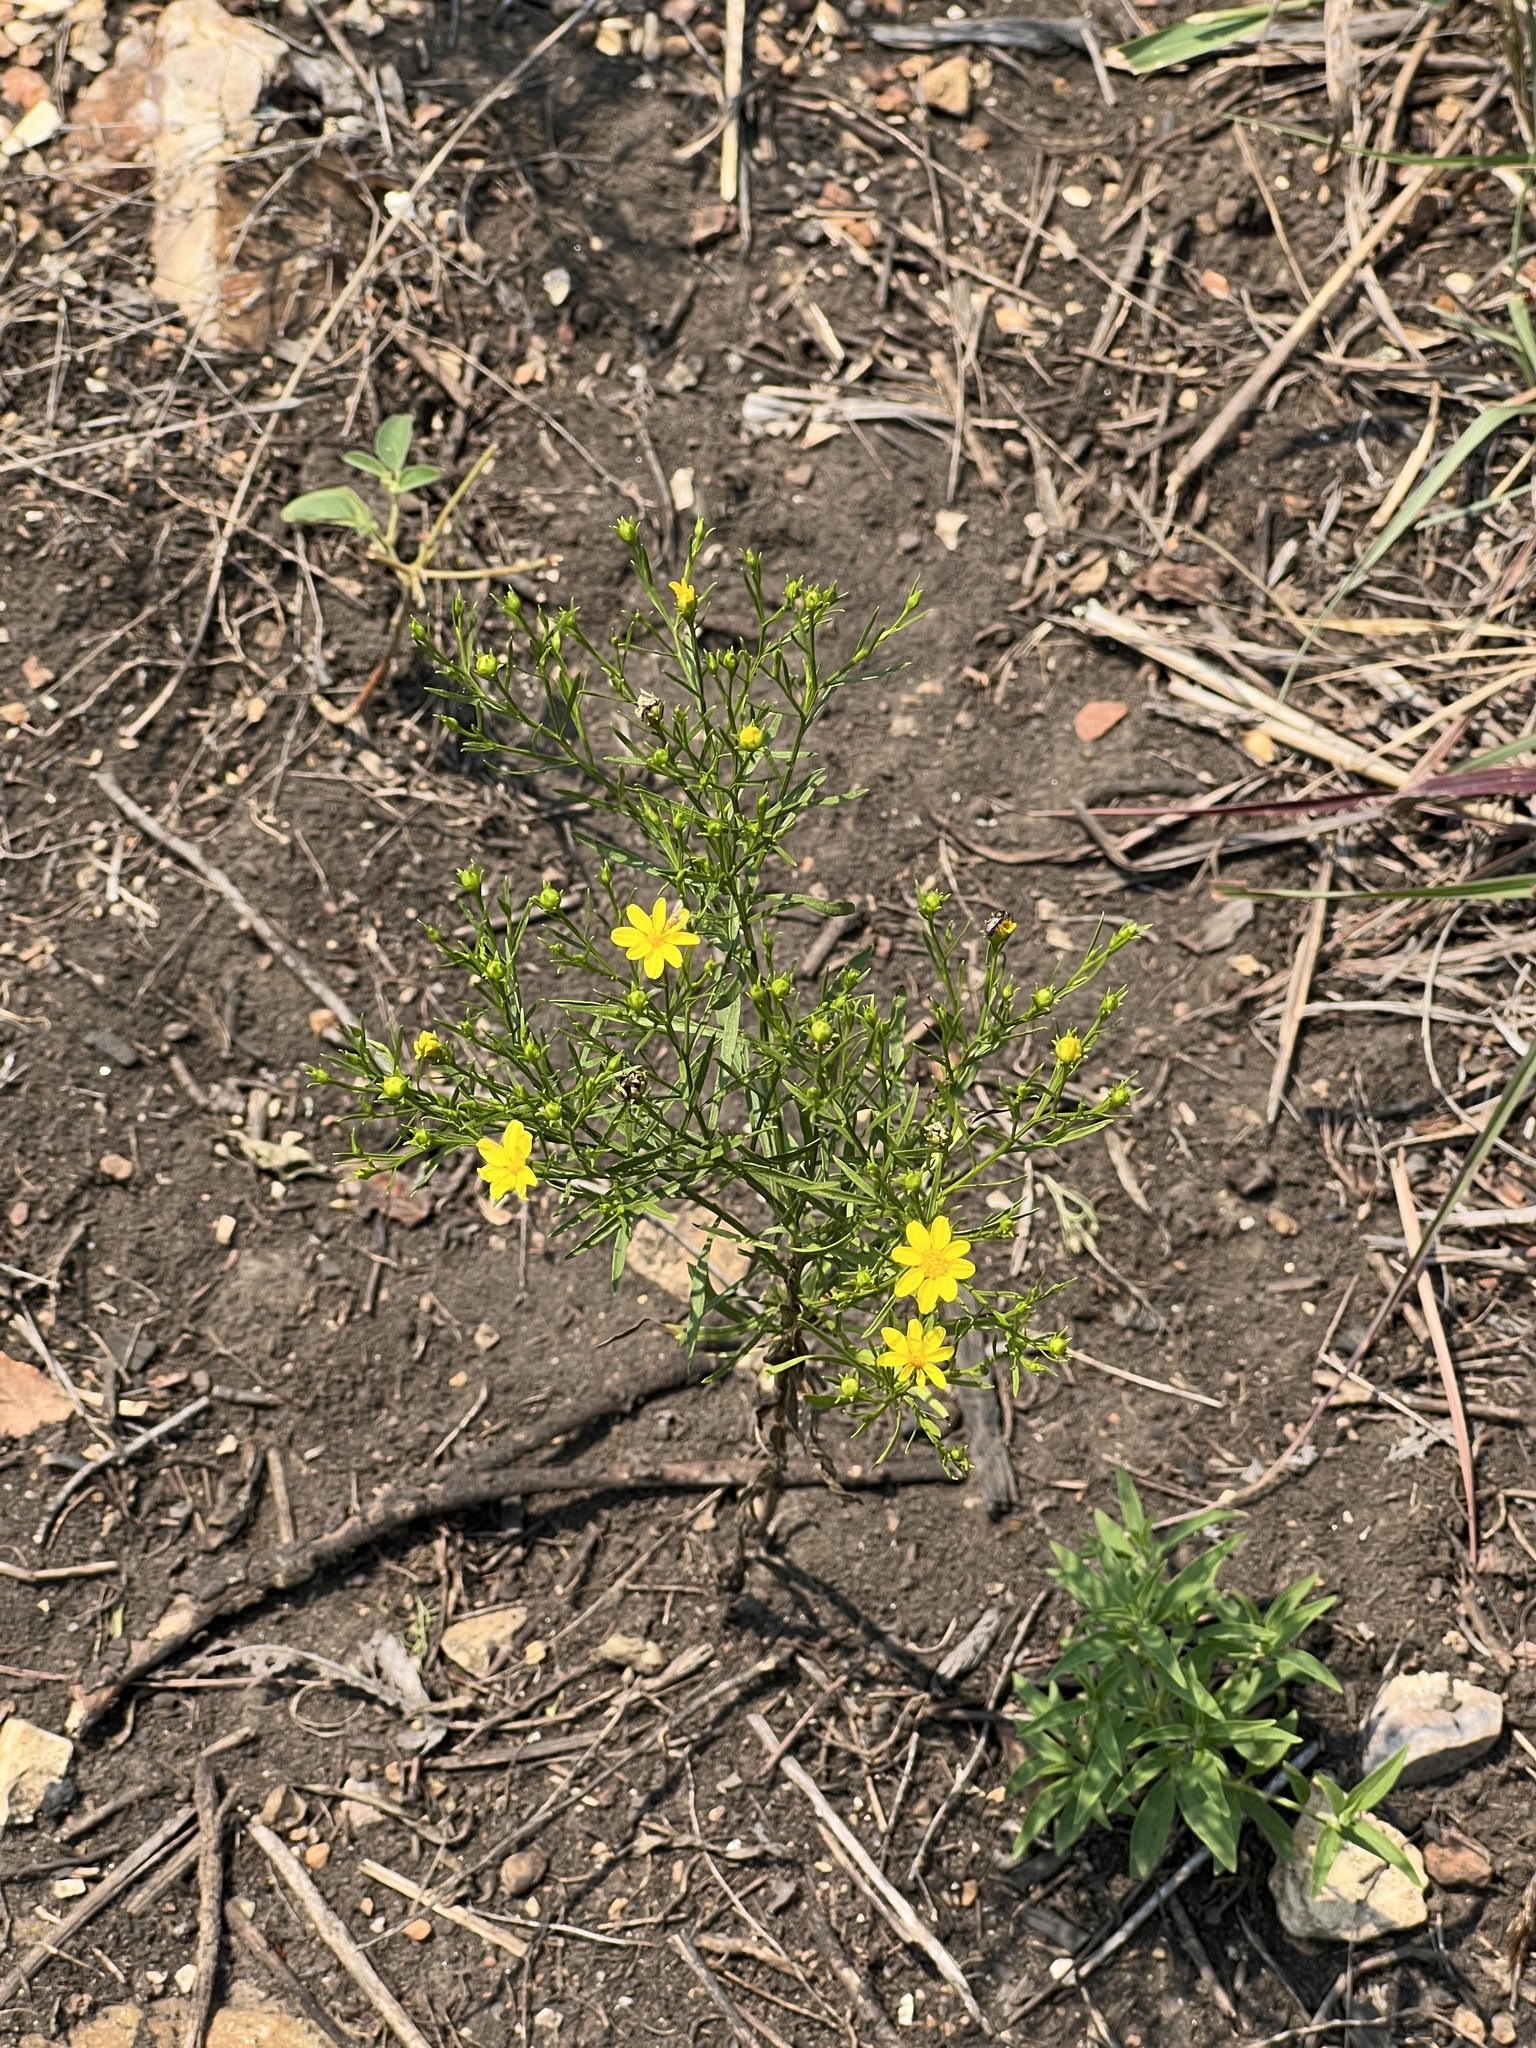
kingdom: Plantae
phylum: Tracheophyta
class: Magnoliopsida
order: Asterales
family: Asteraceae
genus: Amphiachyris
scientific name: Amphiachyris dracunculoides
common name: Broomweed
